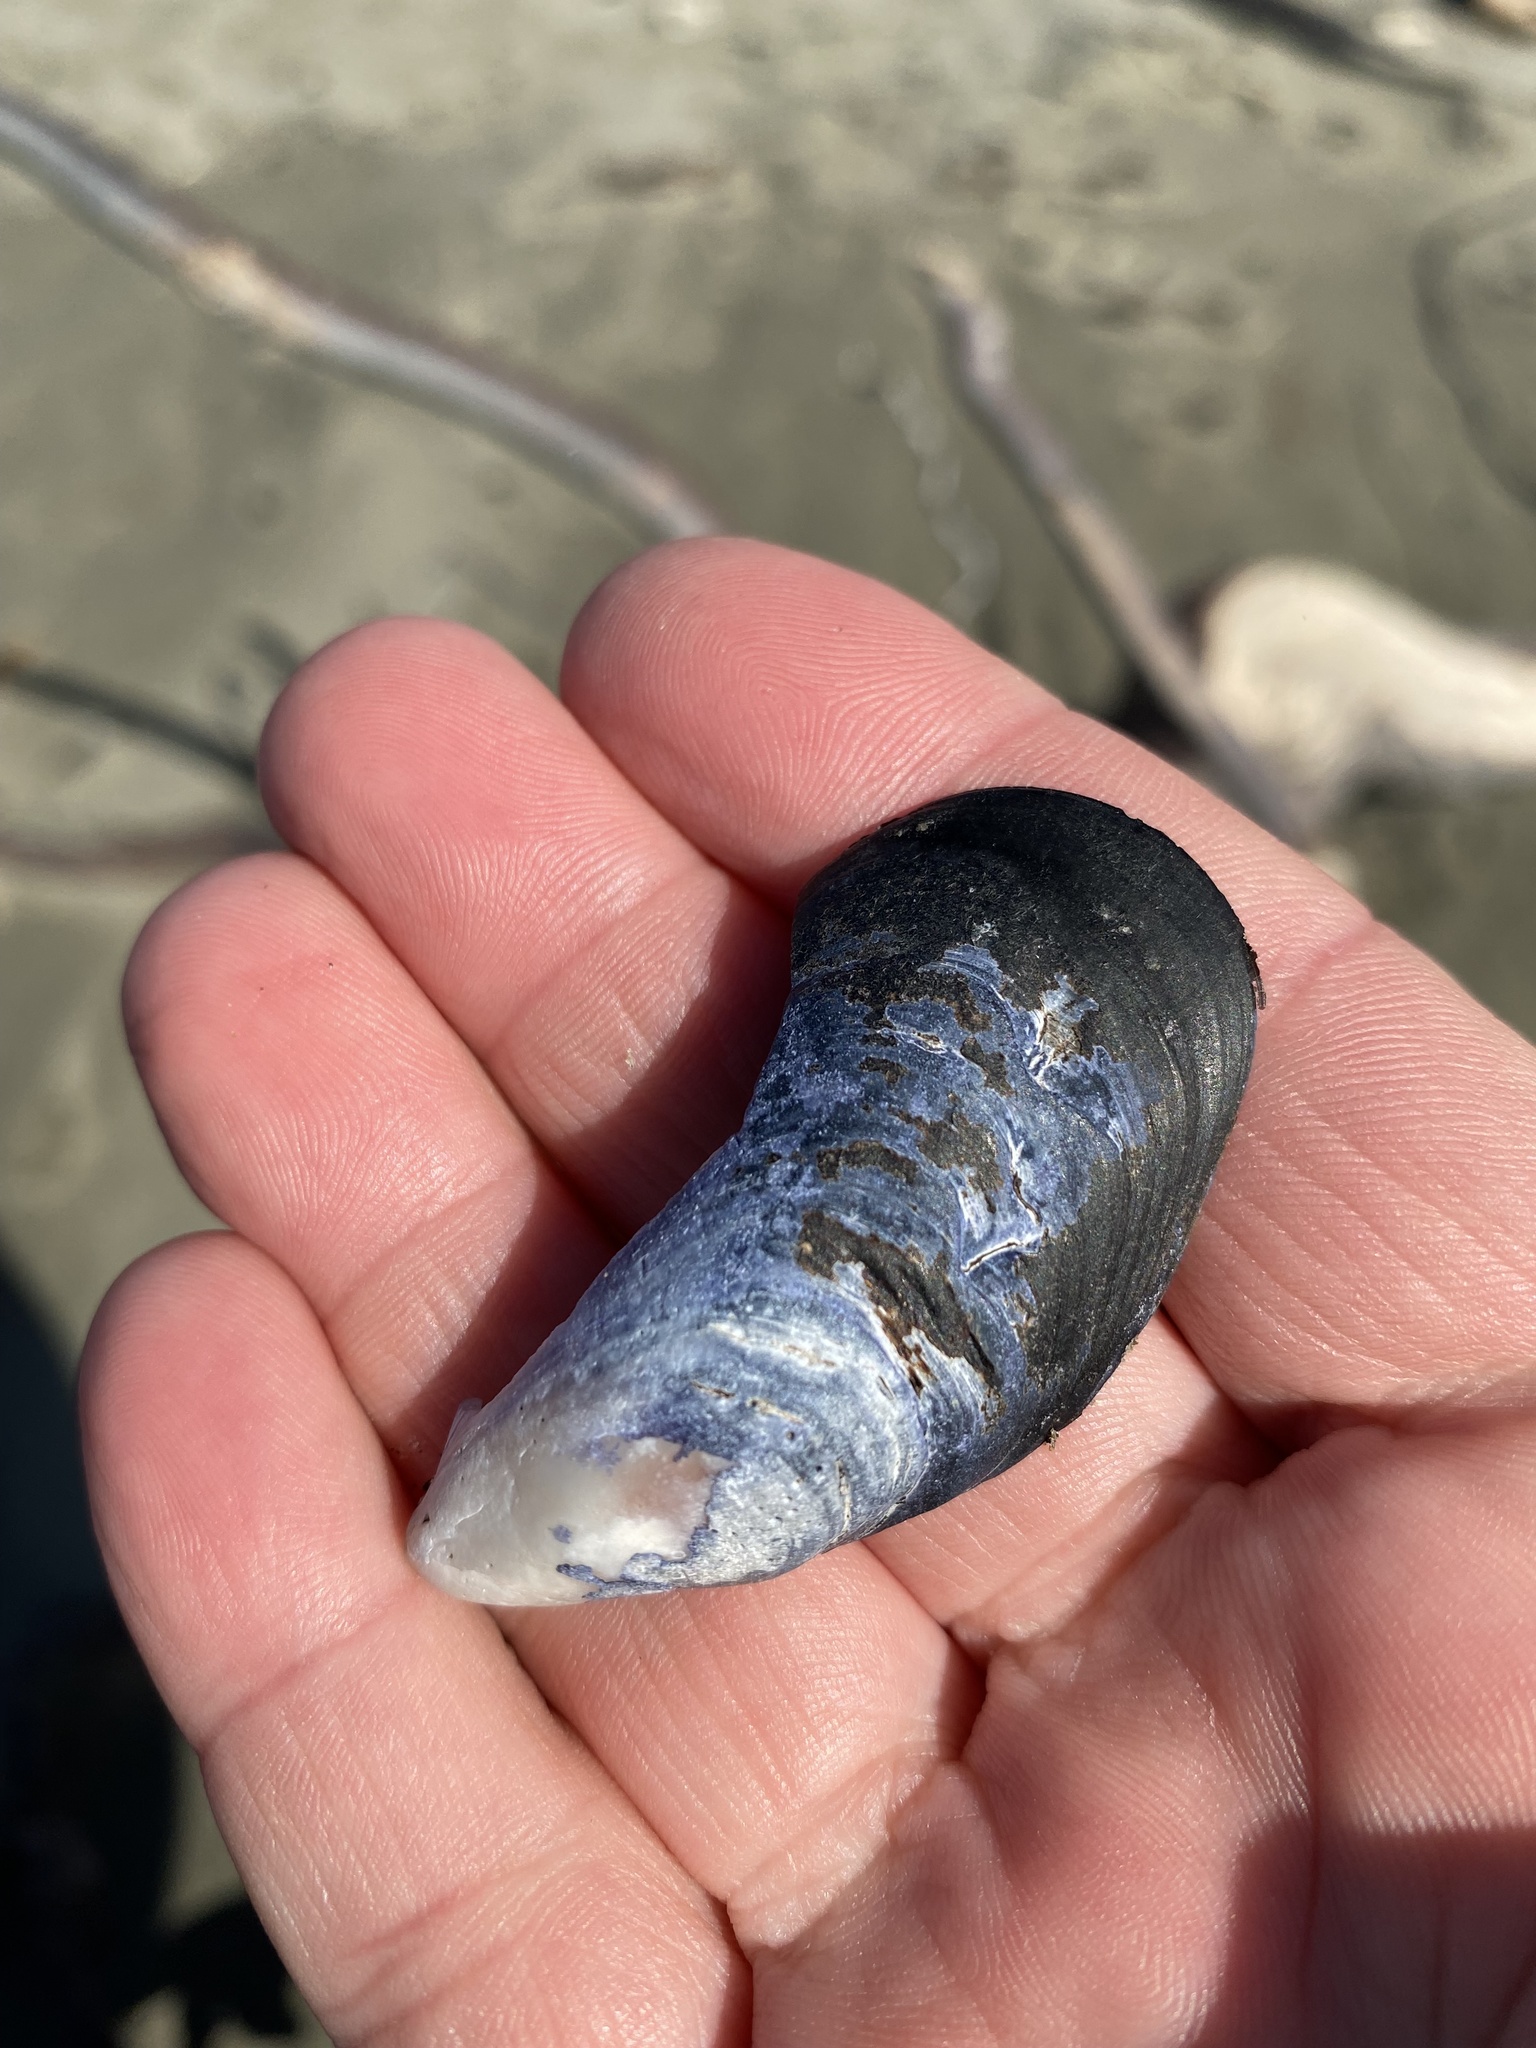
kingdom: Animalia
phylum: Mollusca
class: Bivalvia
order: Mytilida
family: Mytilidae
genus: Mytilus
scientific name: Mytilus planulatus
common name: Australian mussel
